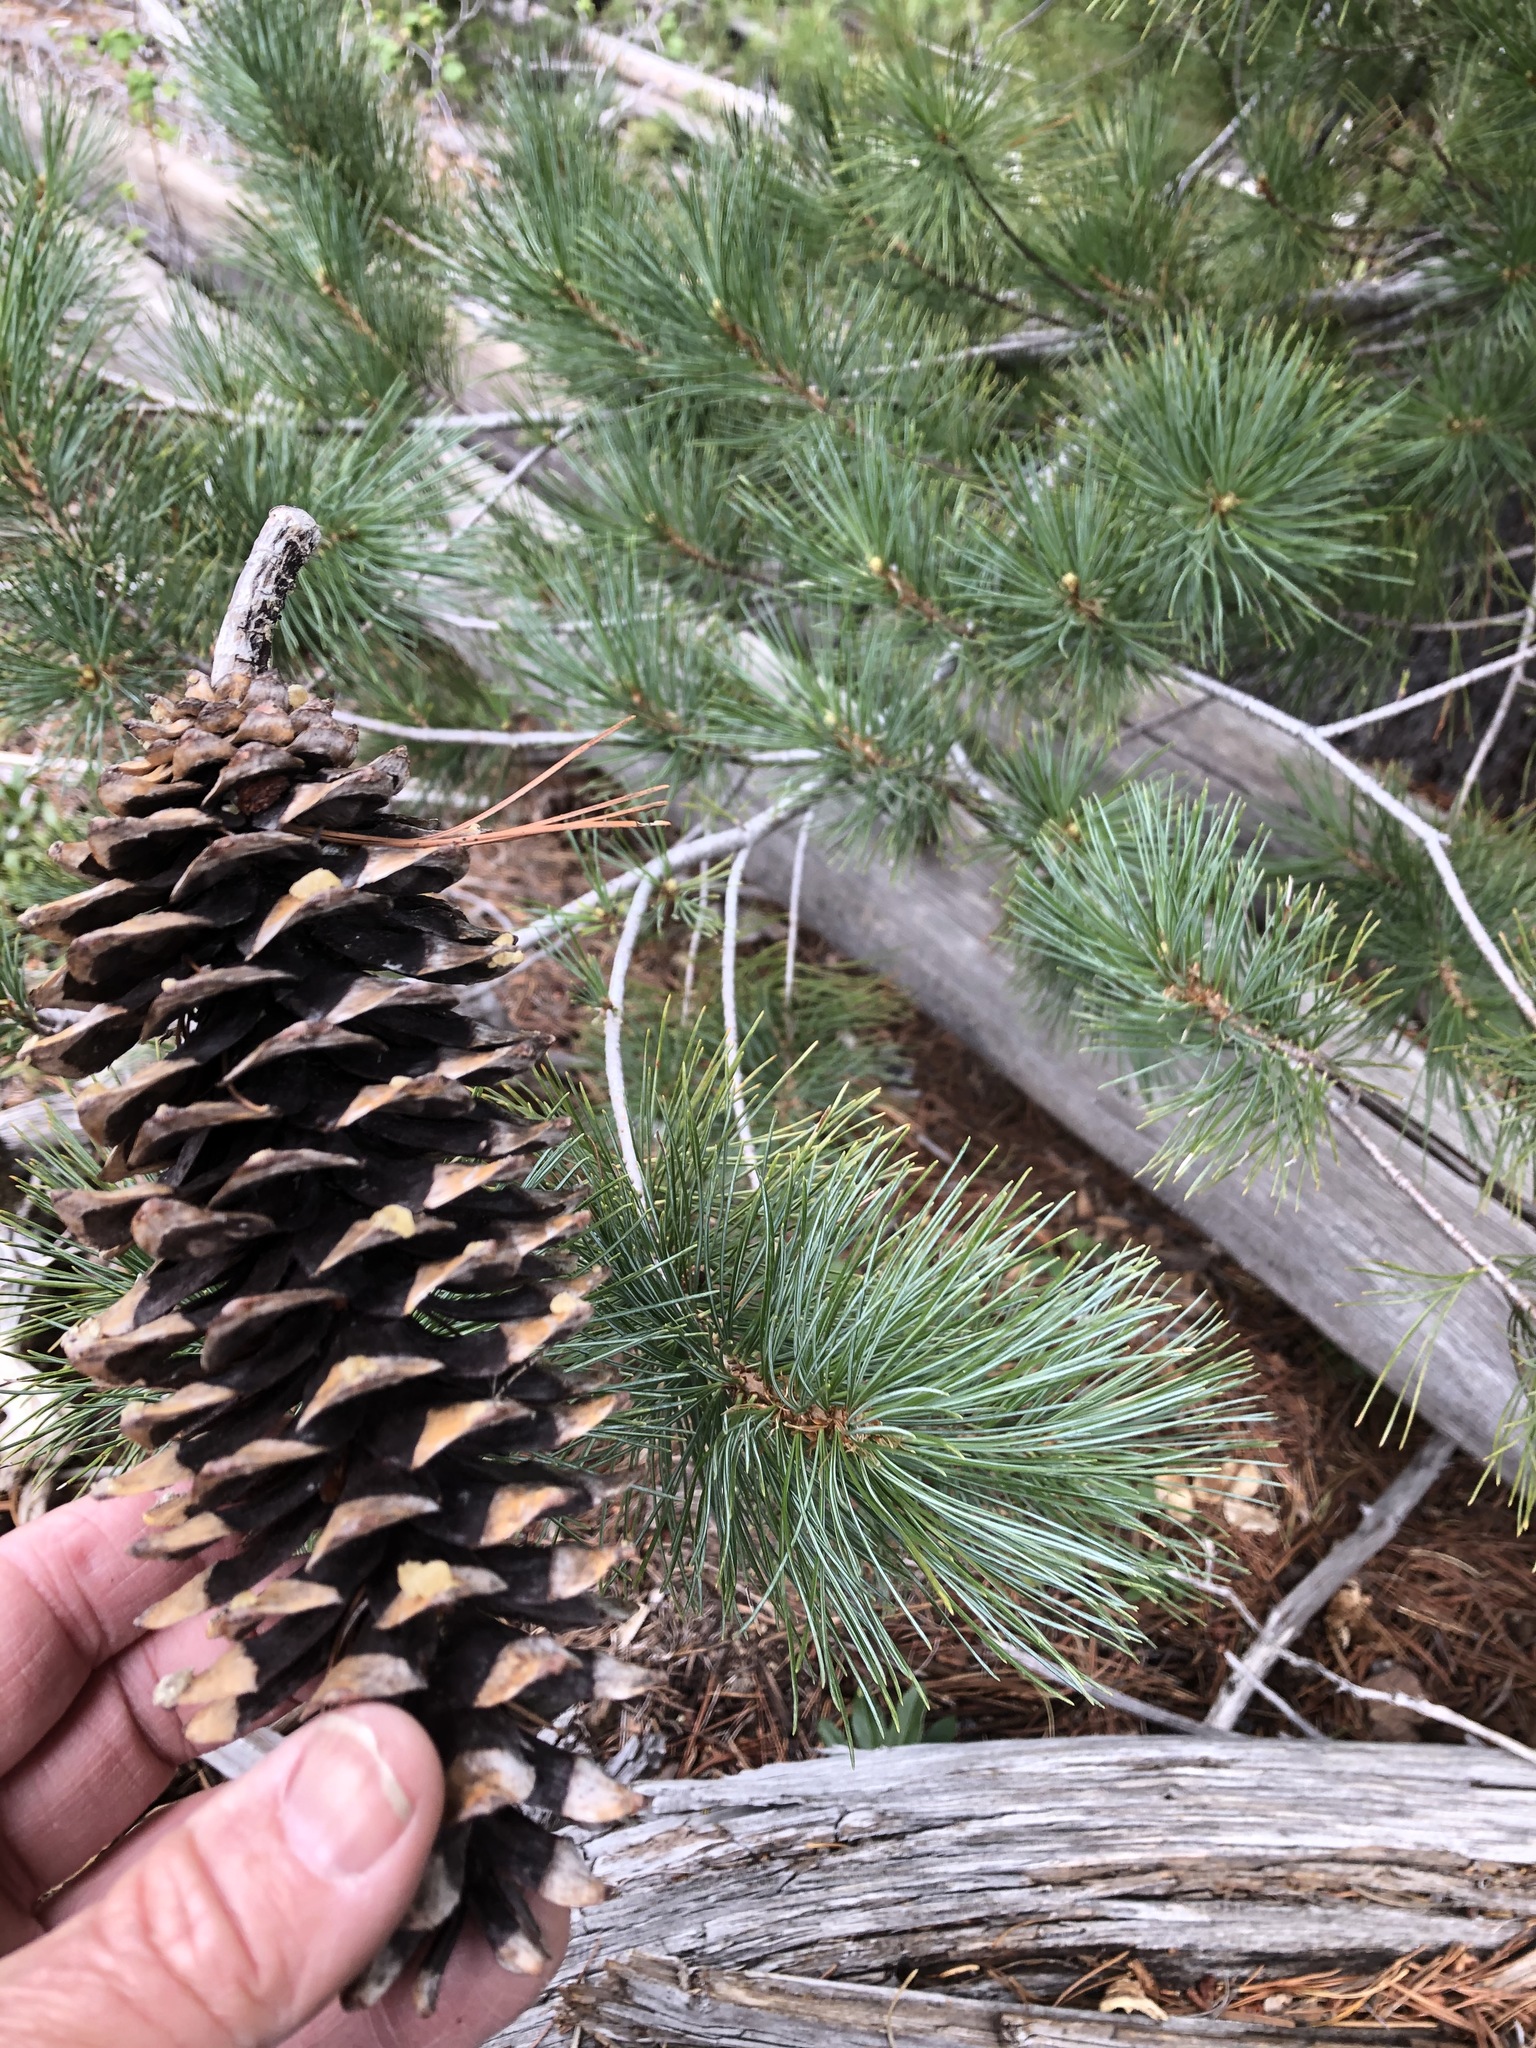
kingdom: Plantae
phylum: Tracheophyta
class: Pinopsida
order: Pinales
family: Pinaceae
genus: Pinus
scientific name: Pinus monticola
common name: Western white pine
